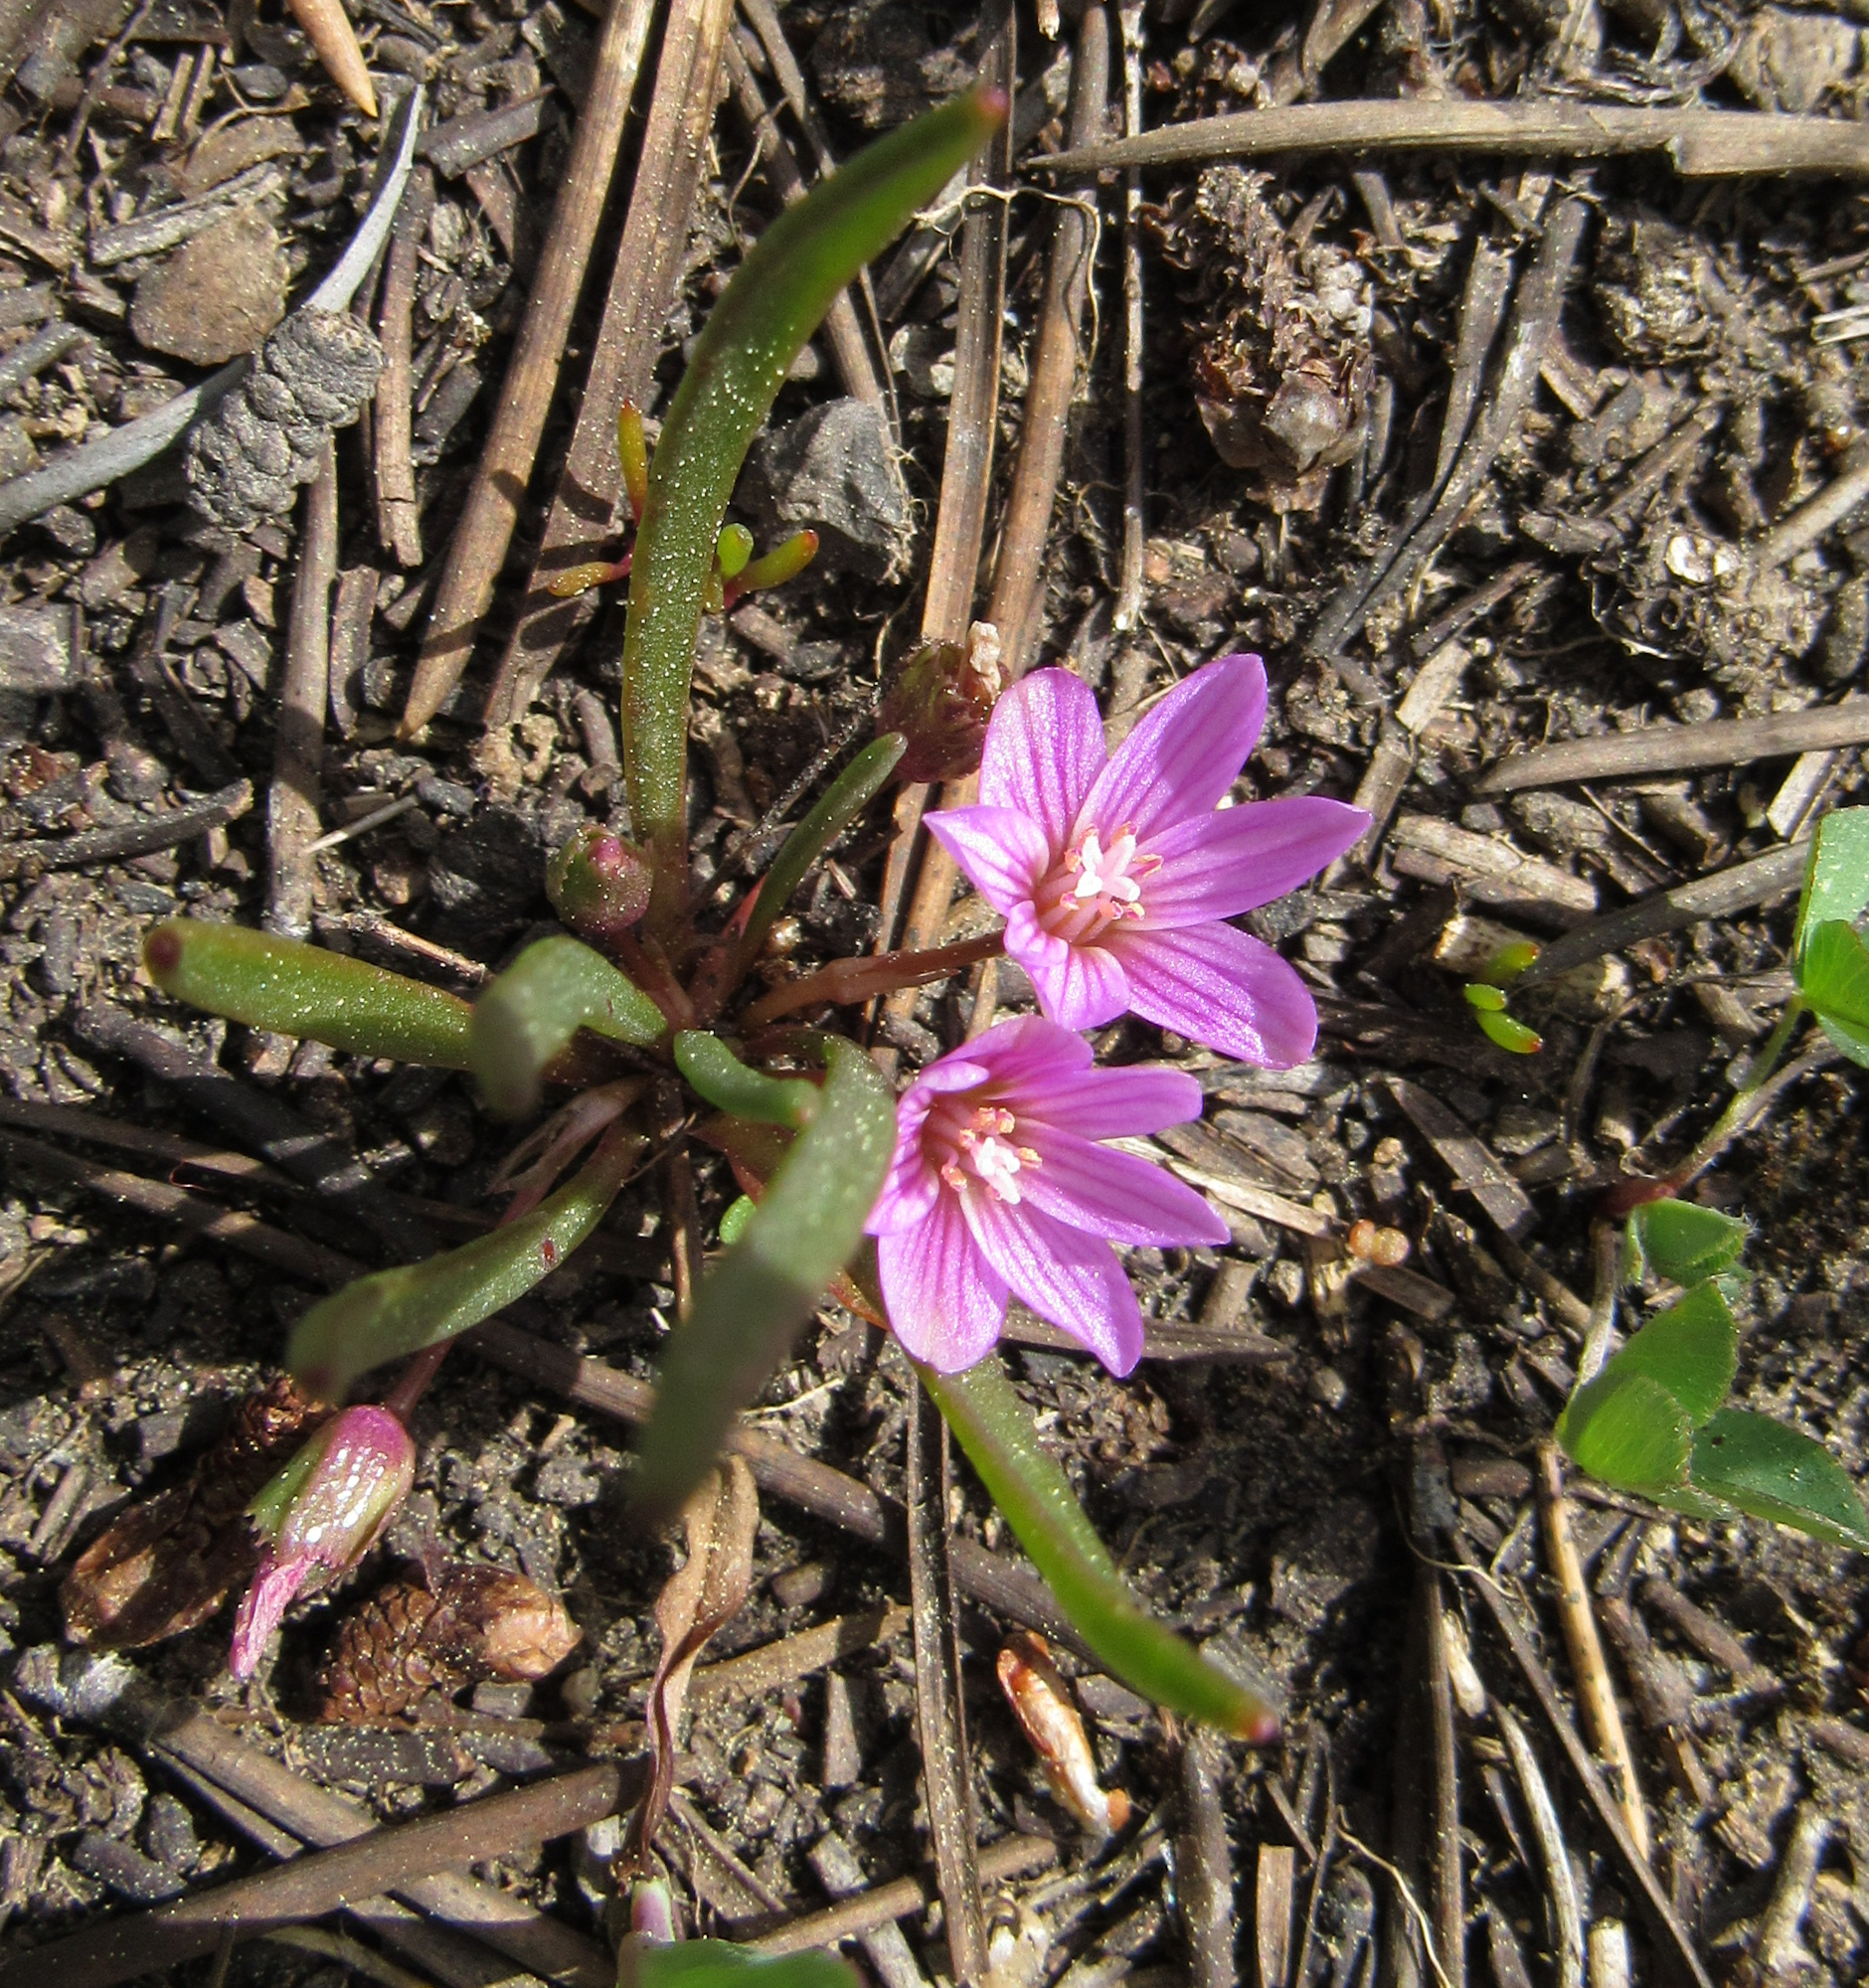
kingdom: Plantae
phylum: Tracheophyta
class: Magnoliopsida
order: Caryophyllales
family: Montiaceae
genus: Lewisia
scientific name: Lewisia pygmaea
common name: Alpine bitterroot
